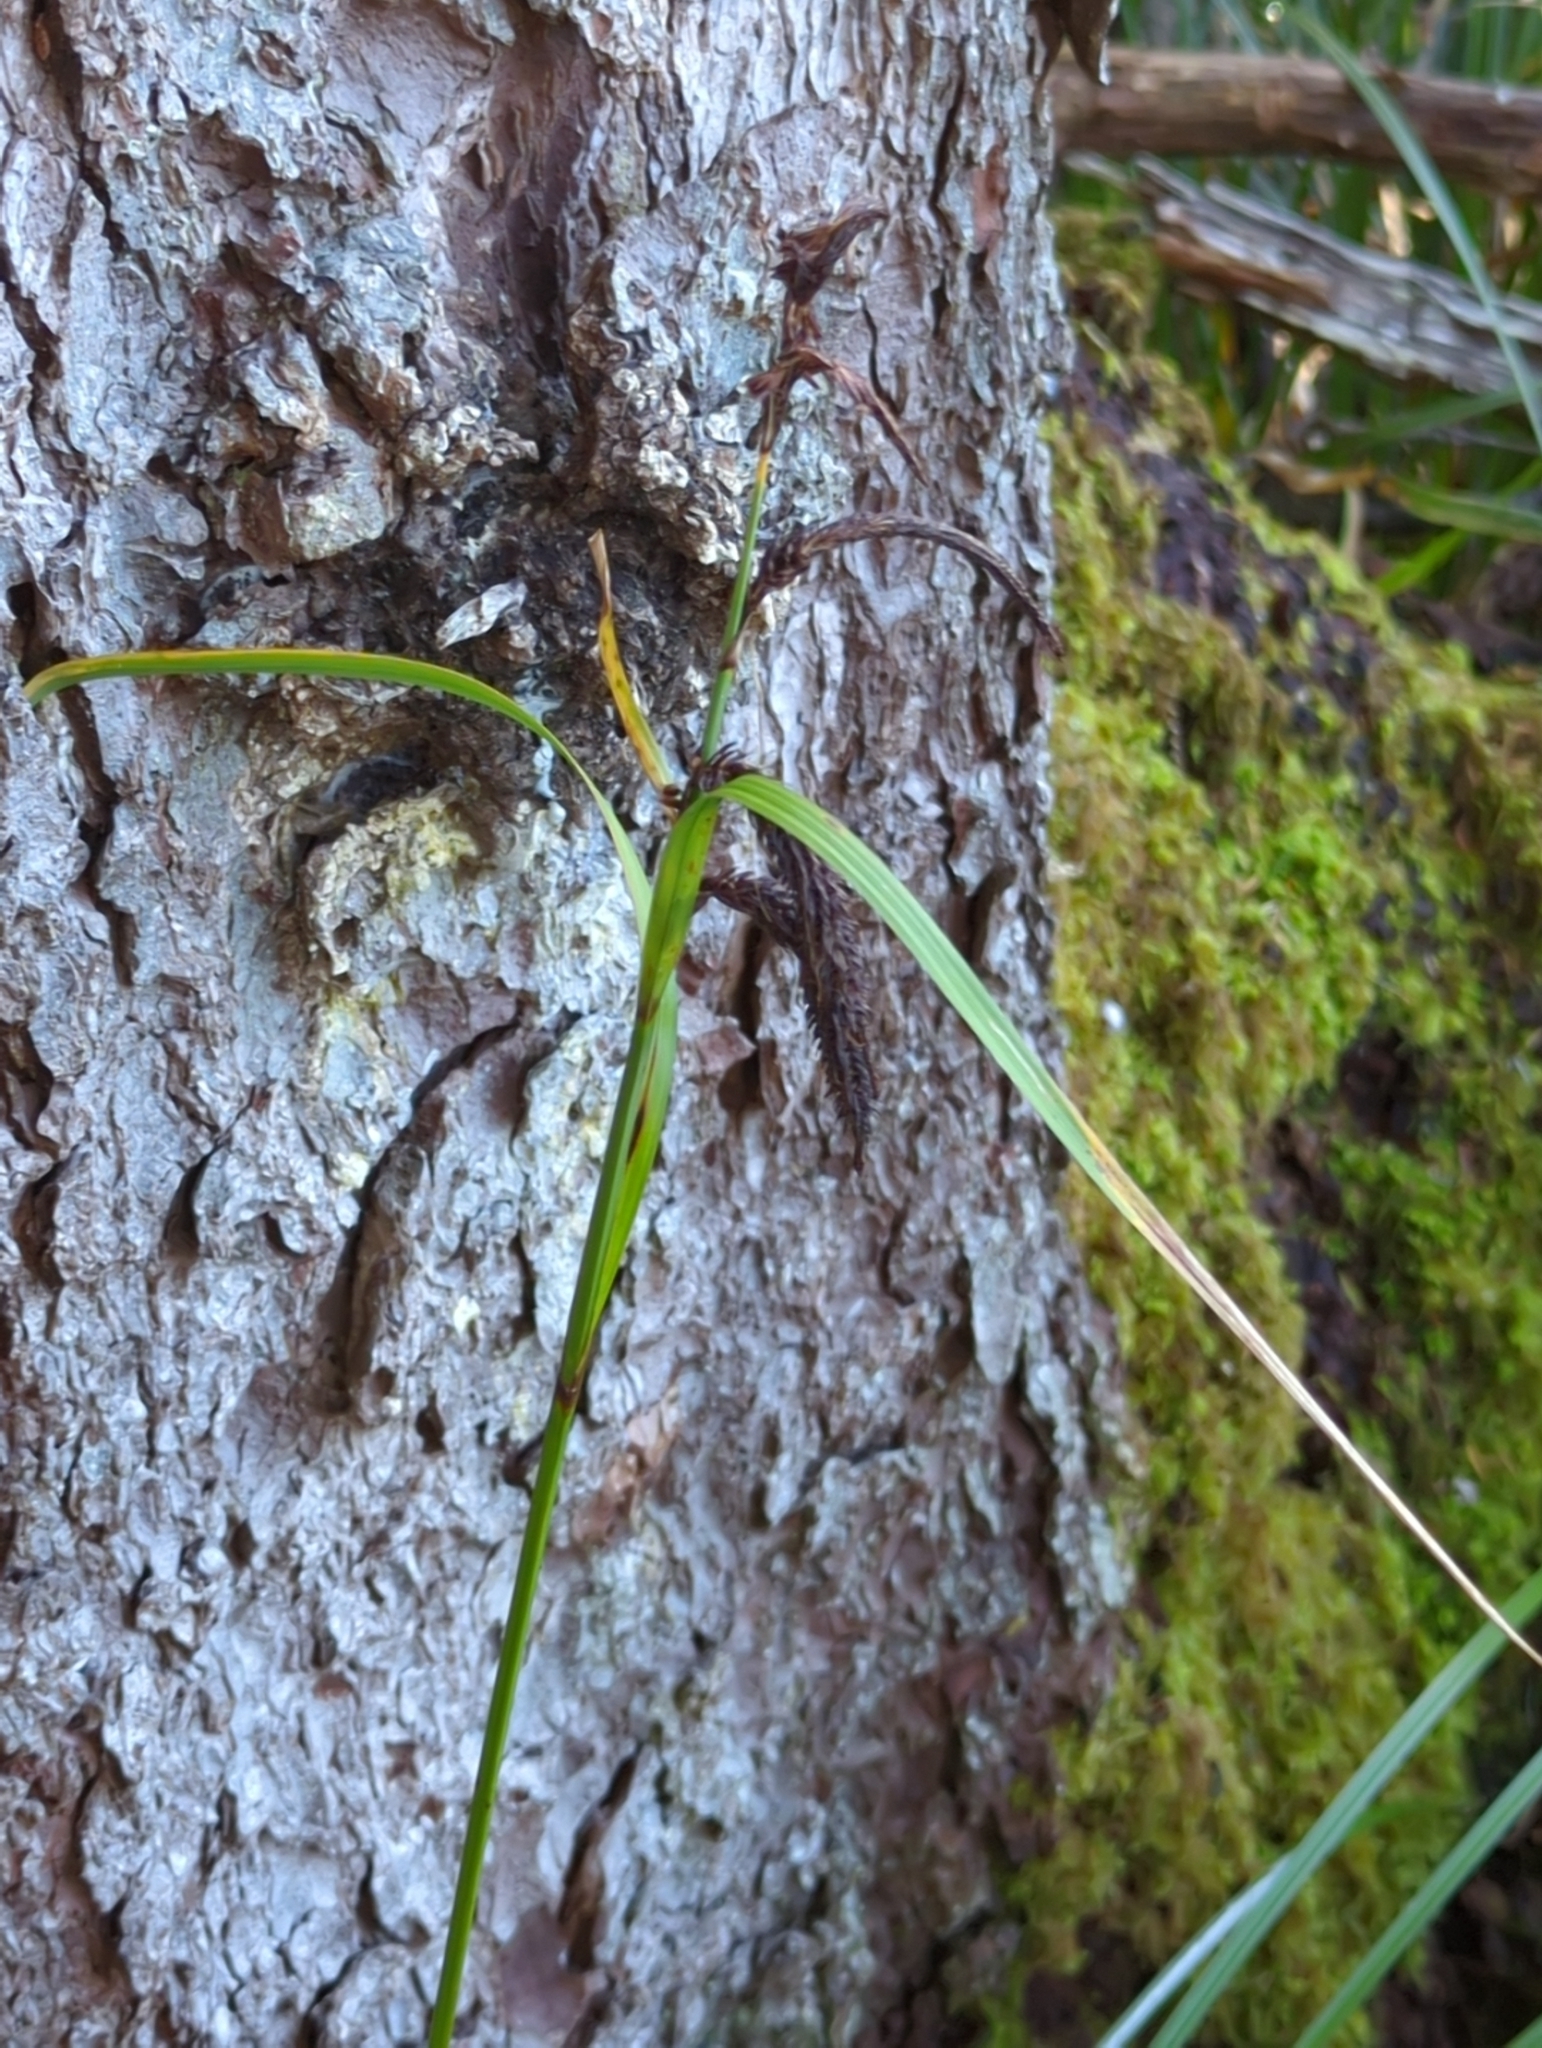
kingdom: Plantae
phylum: Tracheophyta
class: Liliopsida
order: Poales
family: Cyperaceae
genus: Carex
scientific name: Carex obnupta
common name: Slough sedge
